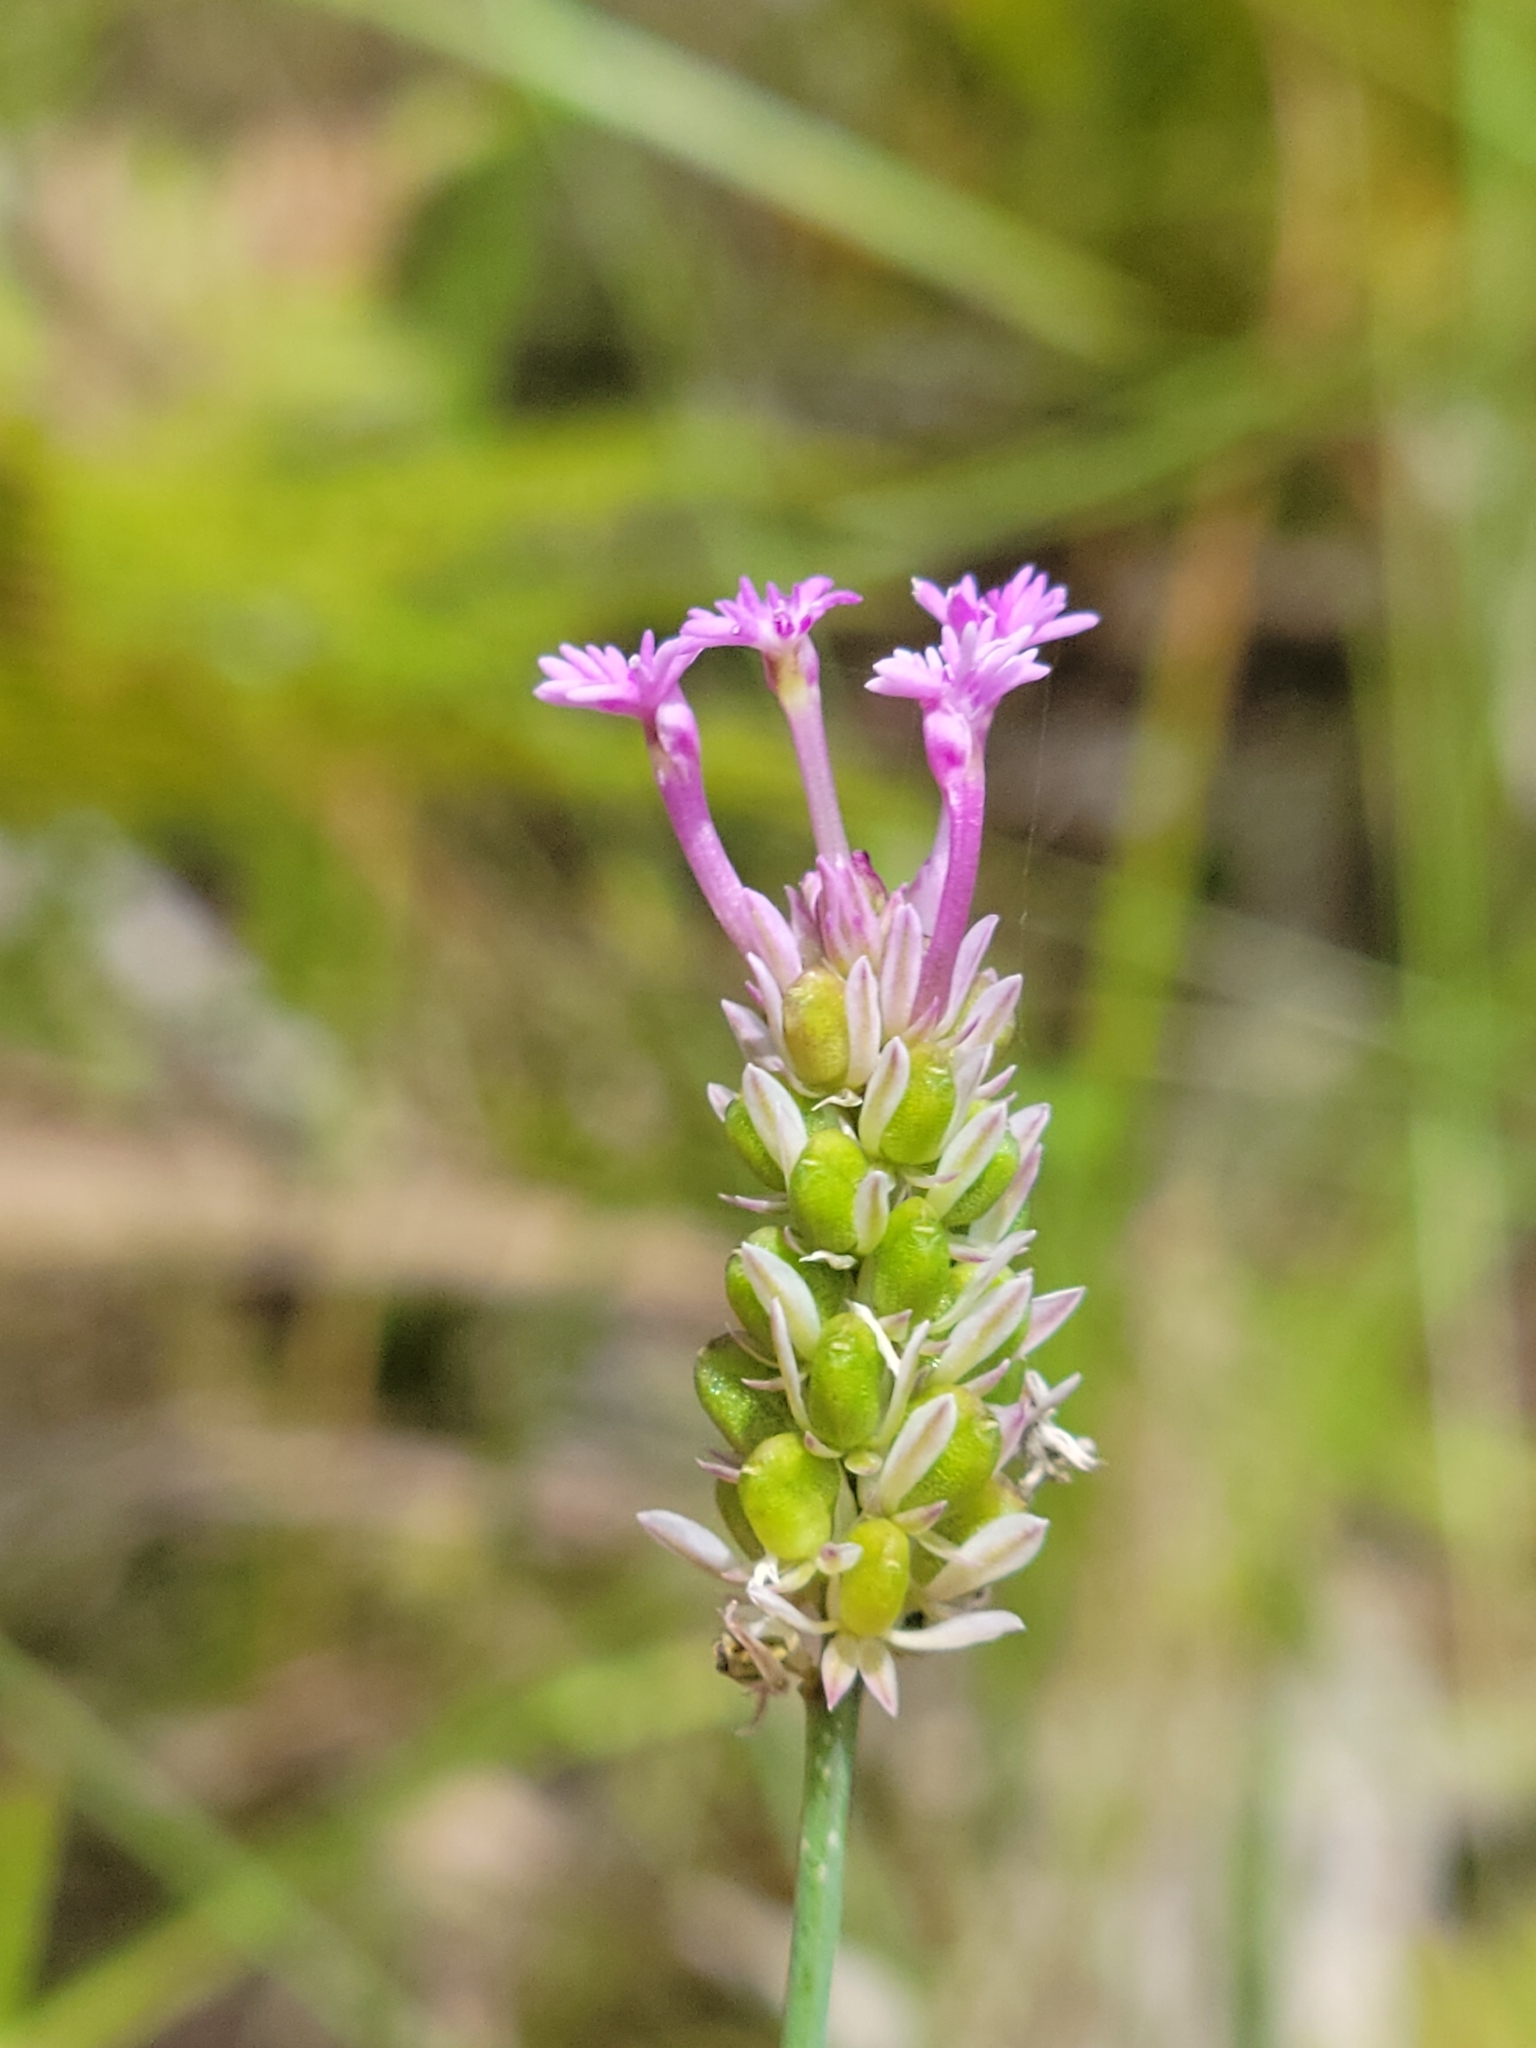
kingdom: Plantae
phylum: Tracheophyta
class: Magnoliopsida
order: Fabales
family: Polygalaceae
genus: Polygala
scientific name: Polygala incarnata
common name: Pink milkwort
